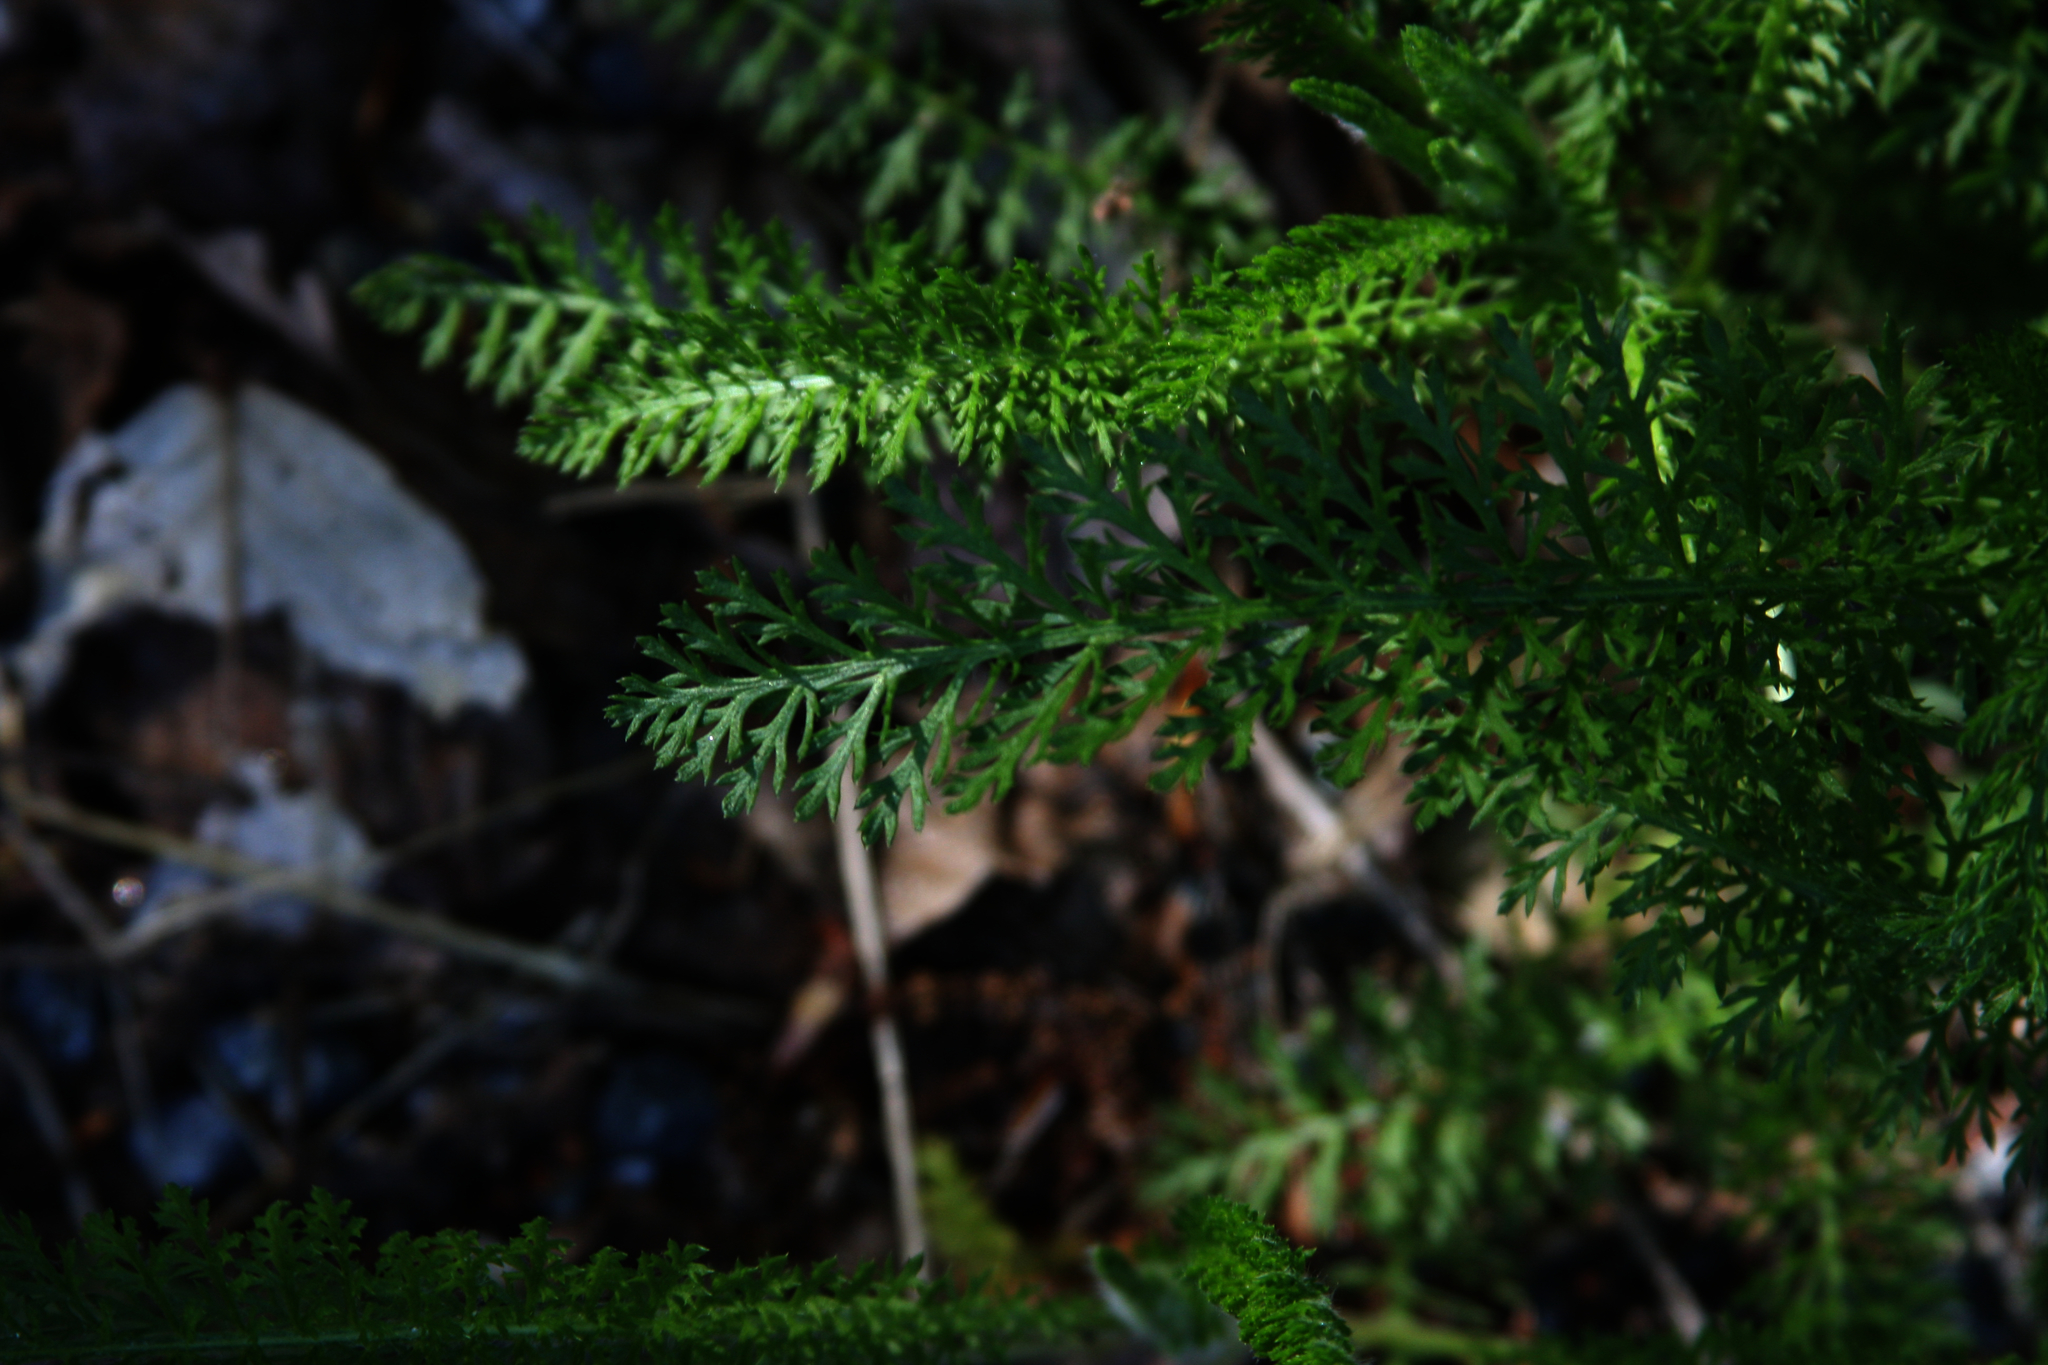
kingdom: Plantae
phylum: Tracheophyta
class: Magnoliopsida
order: Asterales
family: Asteraceae
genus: Achillea
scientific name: Achillea millefolium
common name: Yarrow
